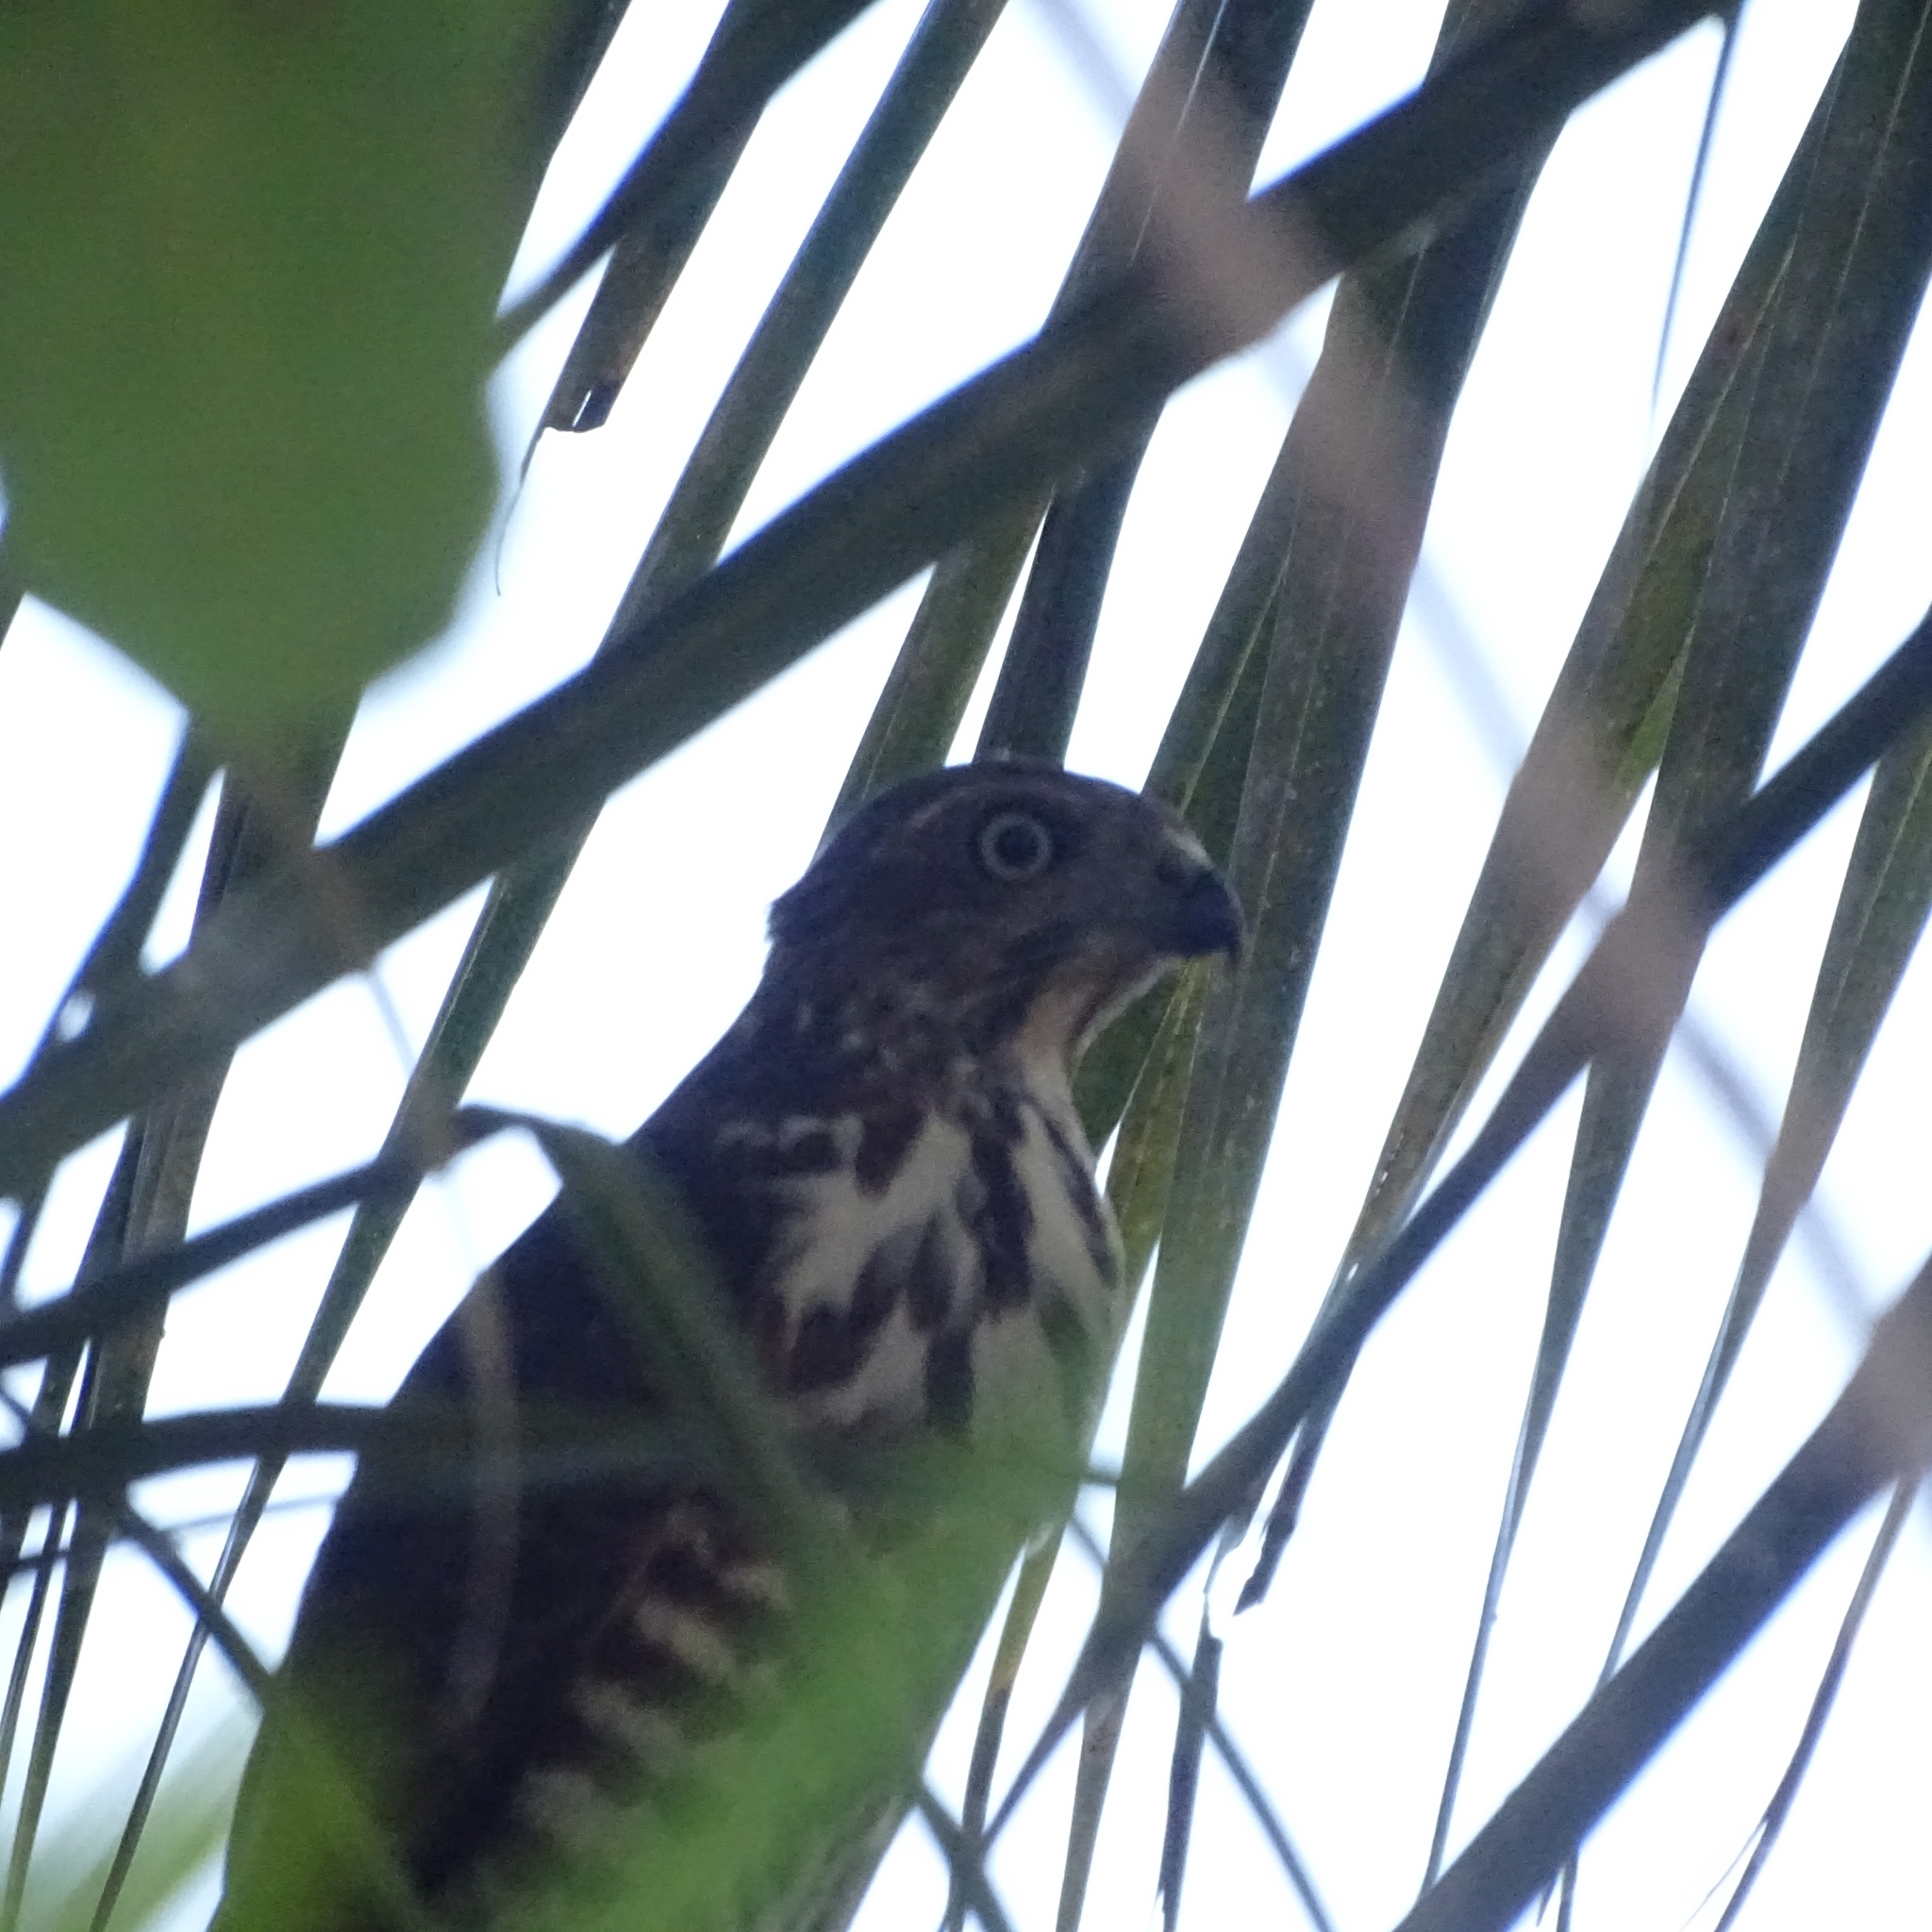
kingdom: Animalia
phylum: Chordata
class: Aves
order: Accipitriformes
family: Accipitridae
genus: Accipiter
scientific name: Accipiter badius
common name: Shikra
